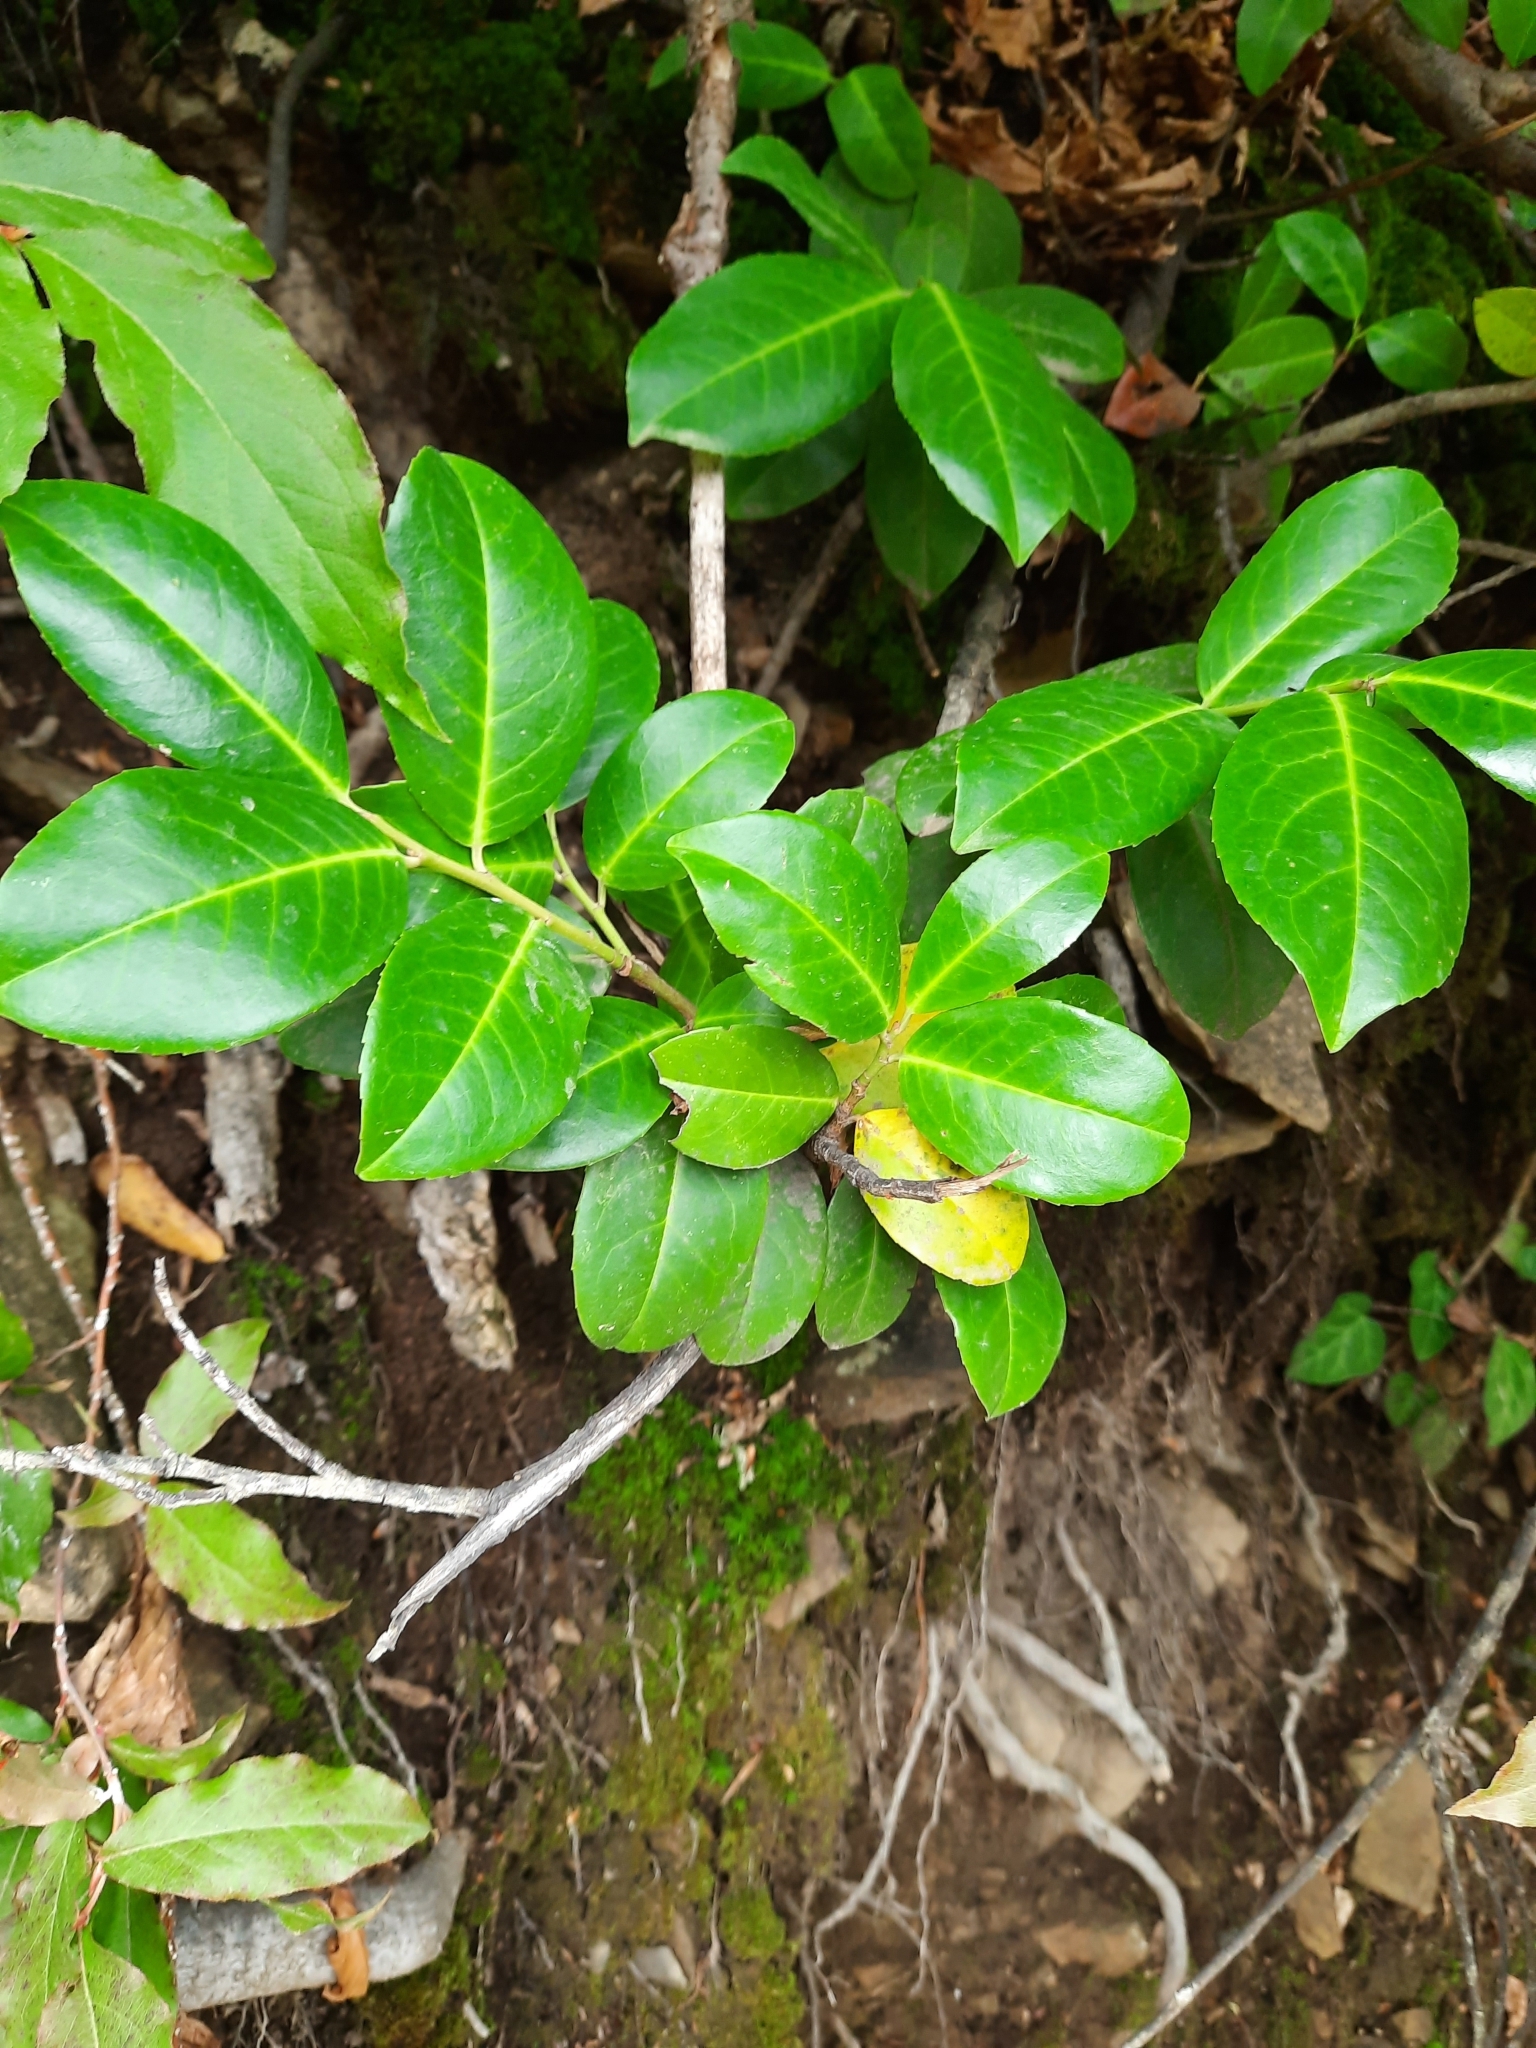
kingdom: Plantae
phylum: Tracheophyta
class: Magnoliopsida
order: Rosales
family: Rosaceae
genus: Prunus
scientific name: Prunus laurocerasus
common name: Cherry laurel
